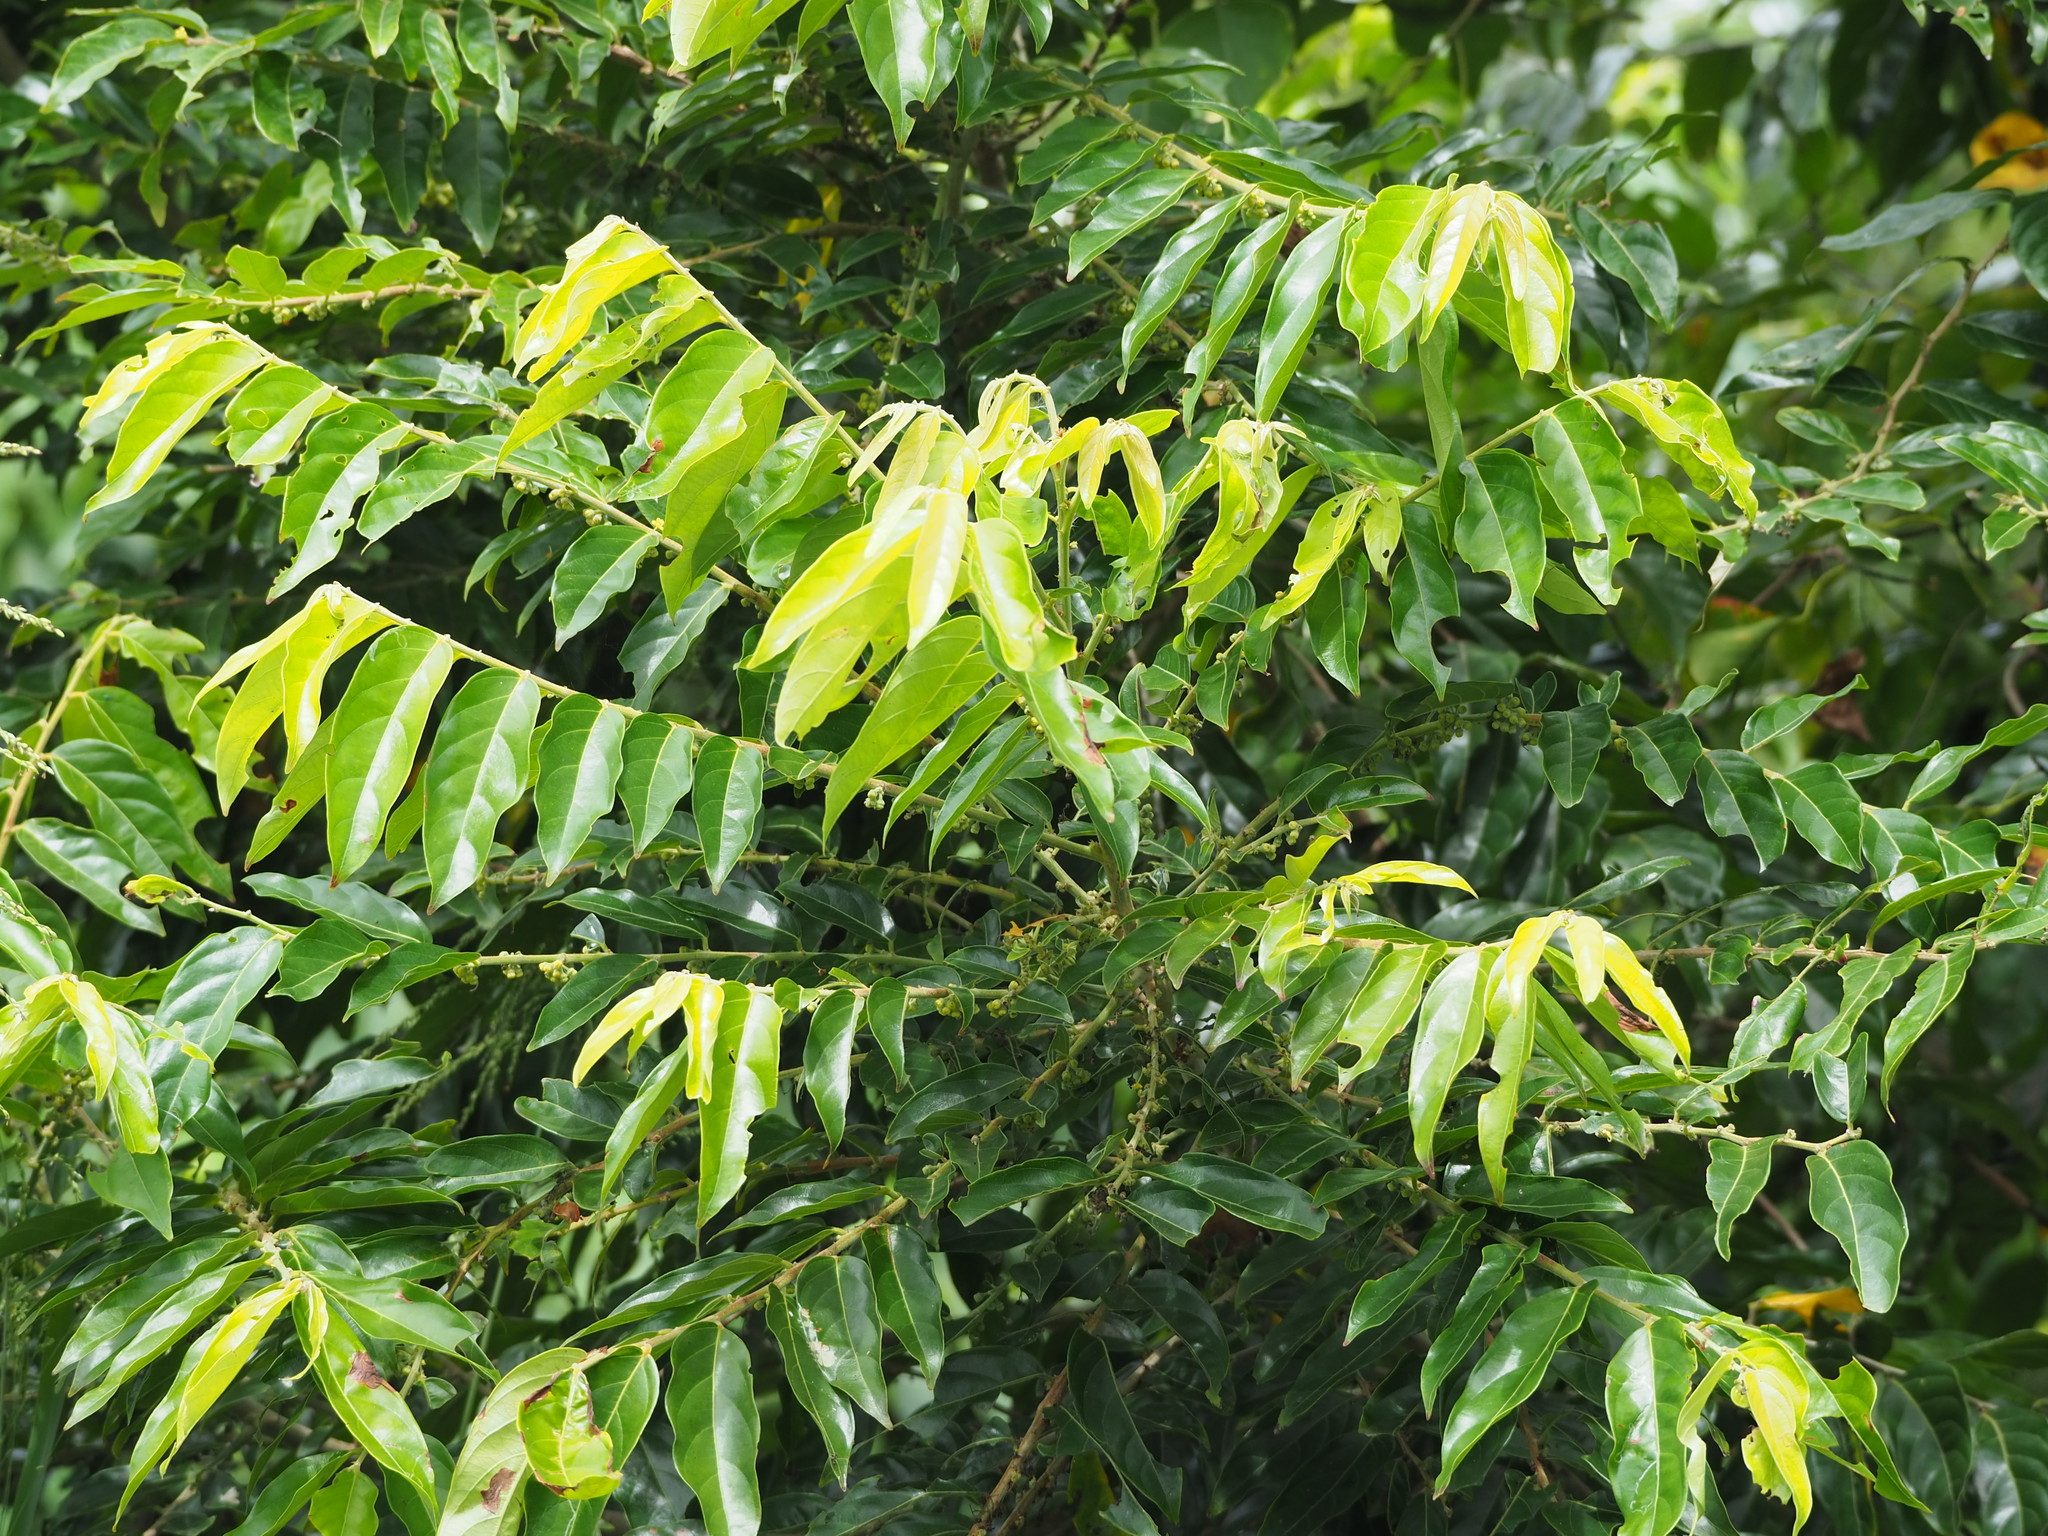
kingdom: Plantae
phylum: Tracheophyta
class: Magnoliopsida
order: Malpighiales
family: Phyllanthaceae
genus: Glochidion
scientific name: Glochidion lanceolatum
